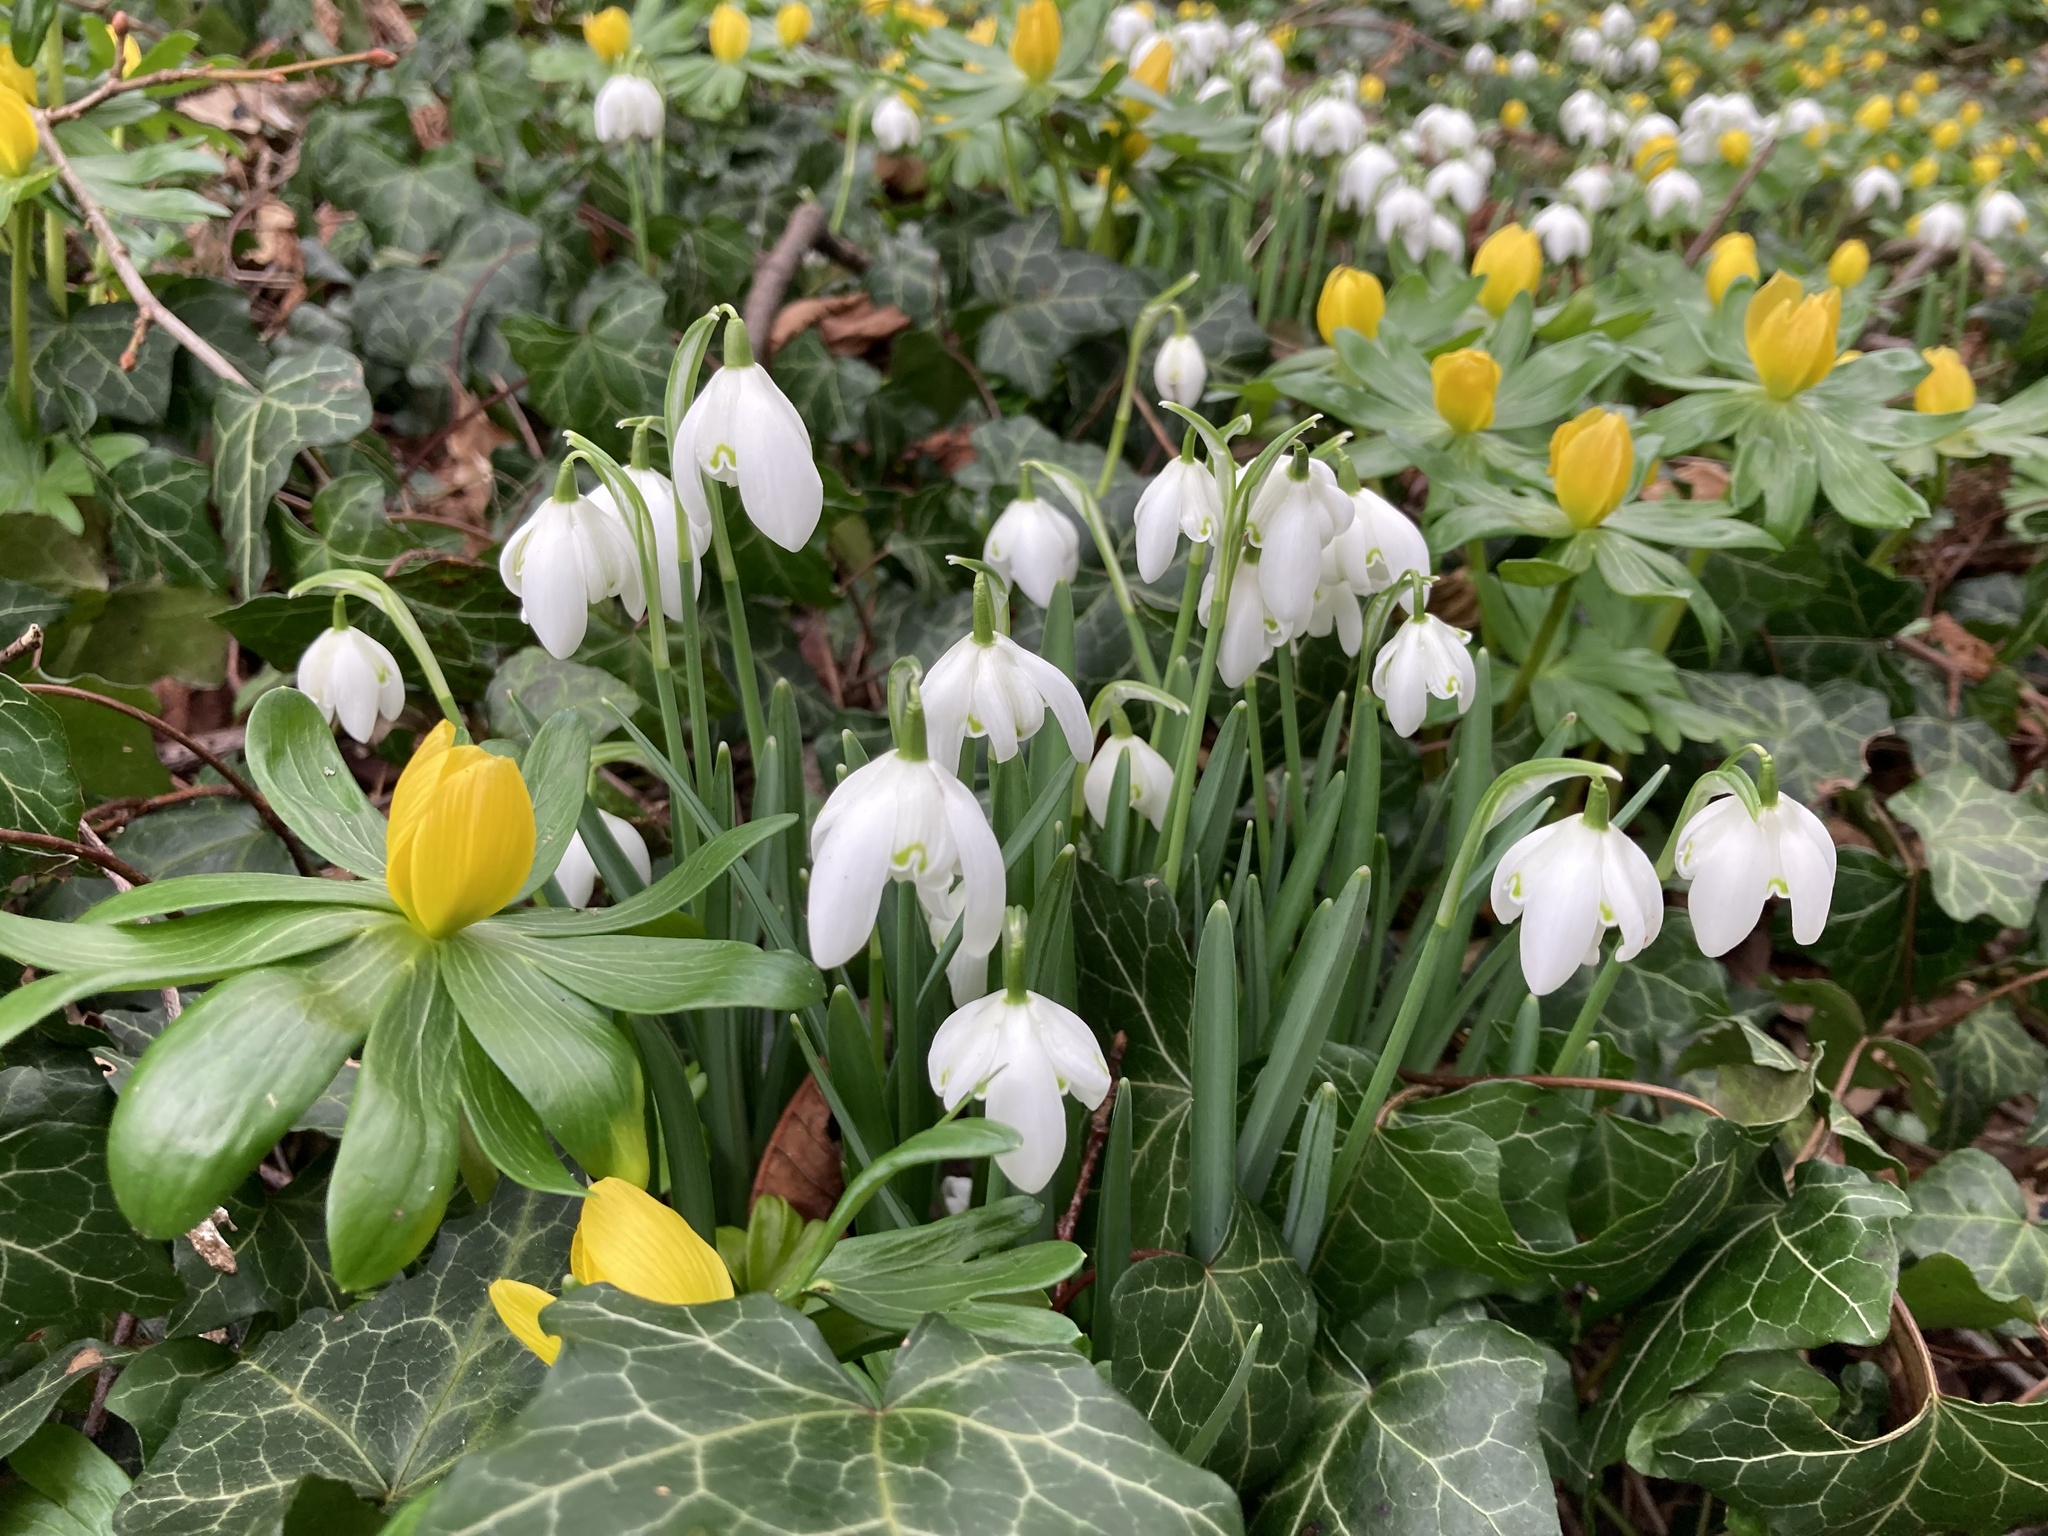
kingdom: Plantae
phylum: Tracheophyta
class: Liliopsida
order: Asparagales
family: Amaryllidaceae
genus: Galanthus
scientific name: Galanthus nivalis
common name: Snowdrop
